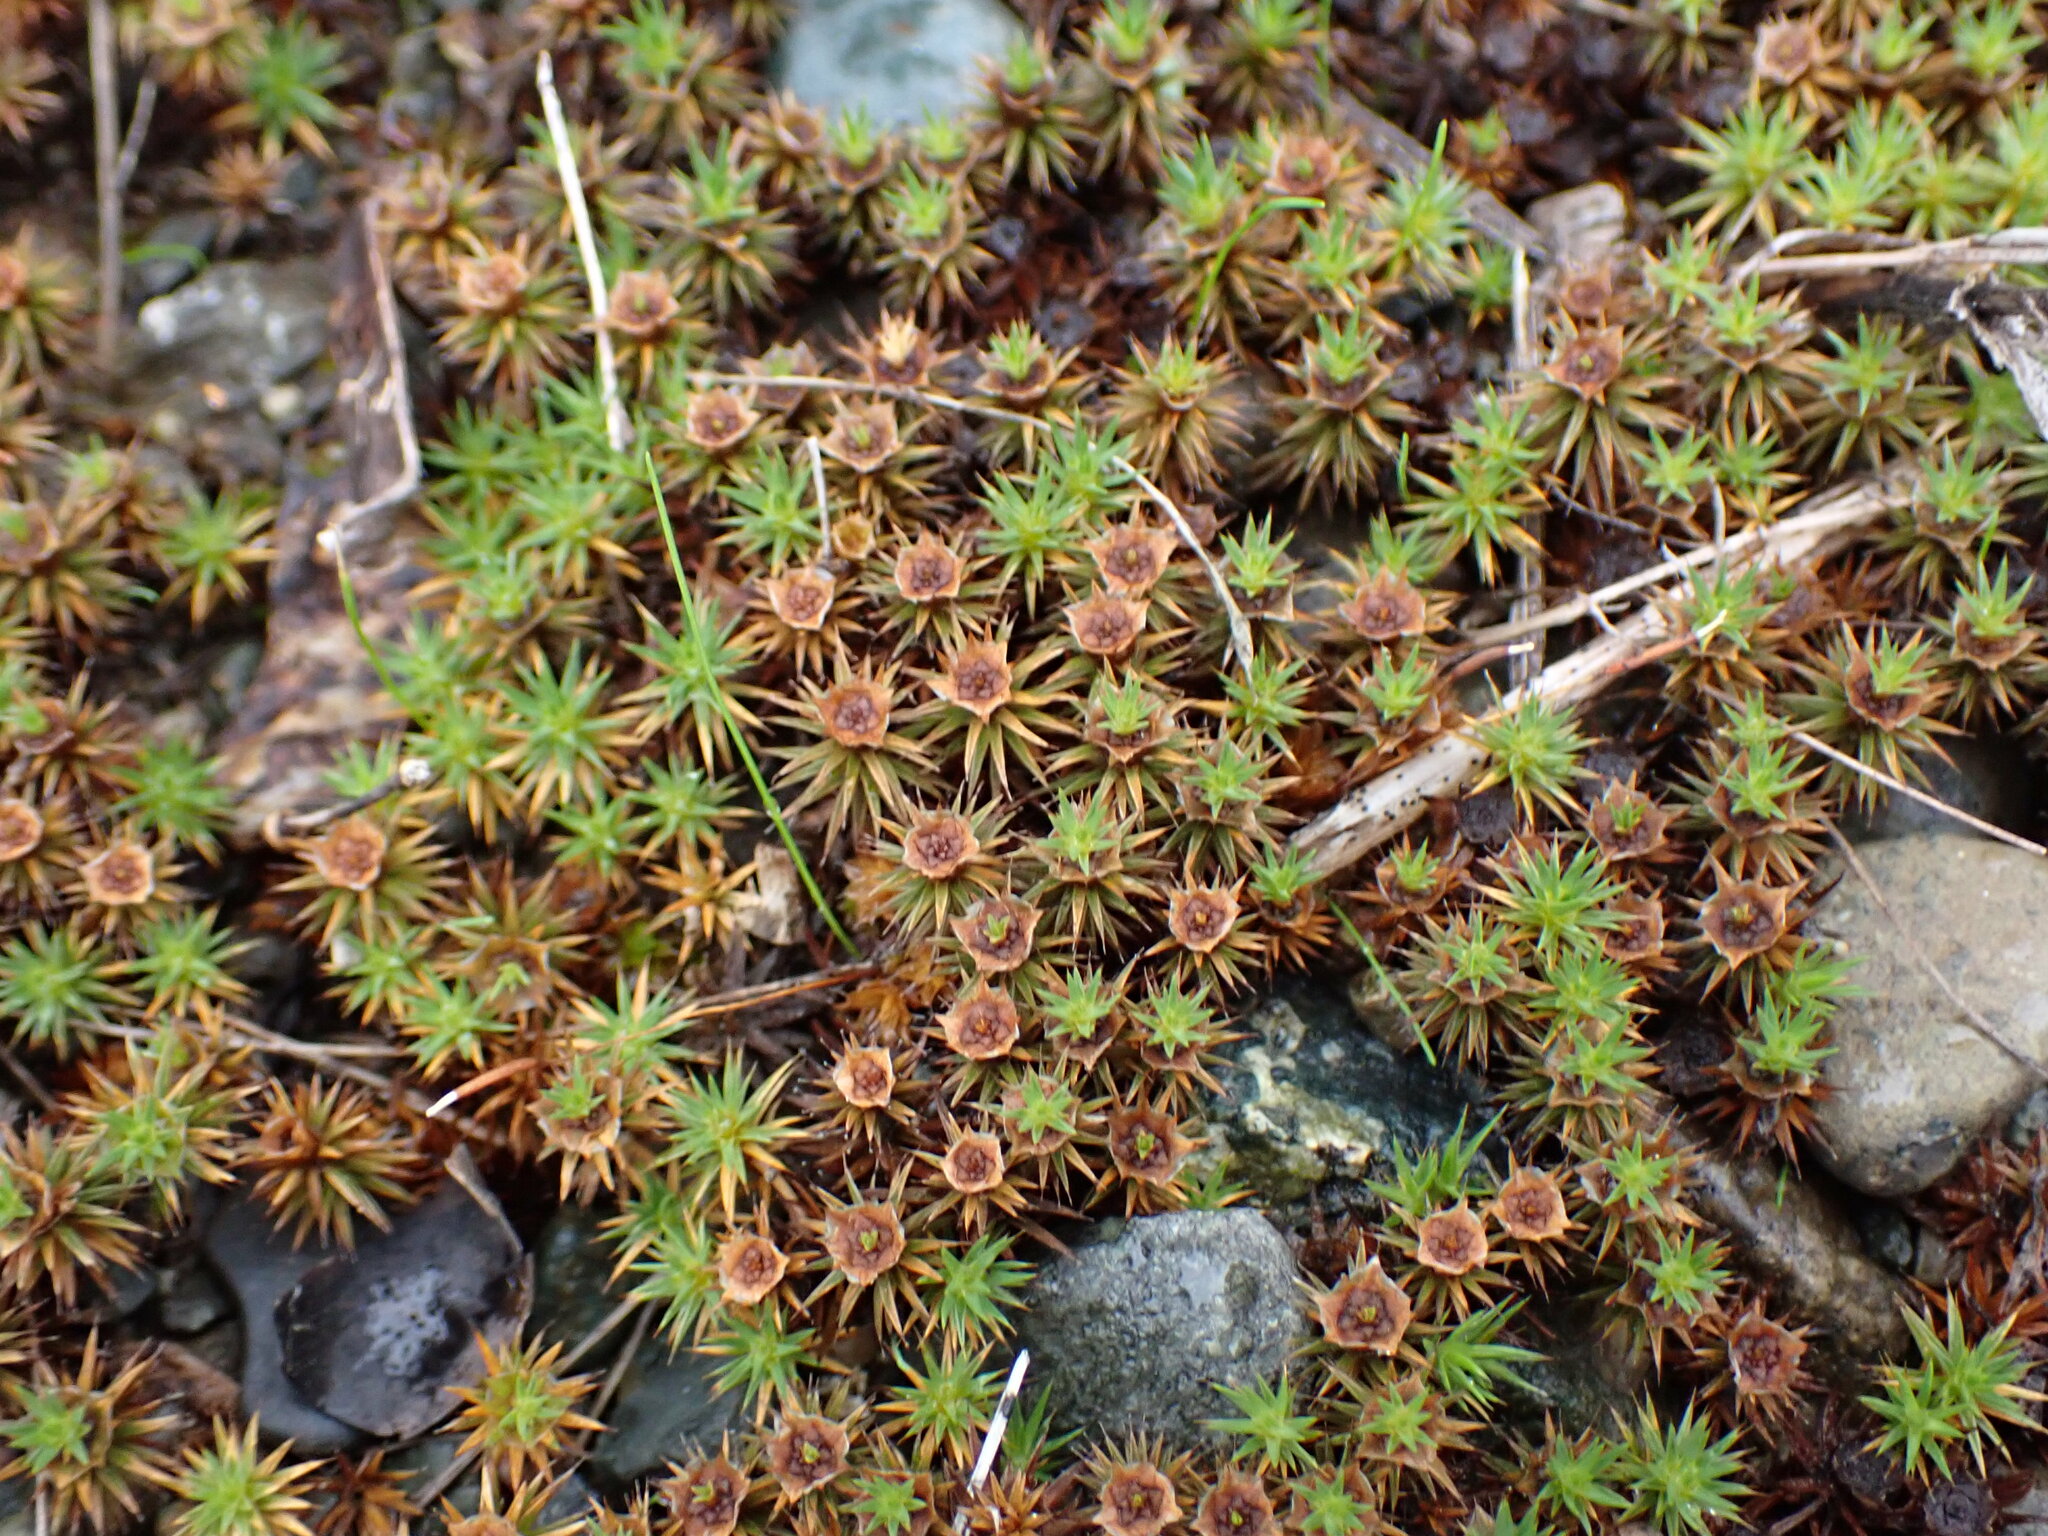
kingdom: Plantae
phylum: Bryophyta
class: Polytrichopsida
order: Polytrichales
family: Polytrichaceae
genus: Polytrichum
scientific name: Polytrichum juniperinum
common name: Juniper haircap moss
